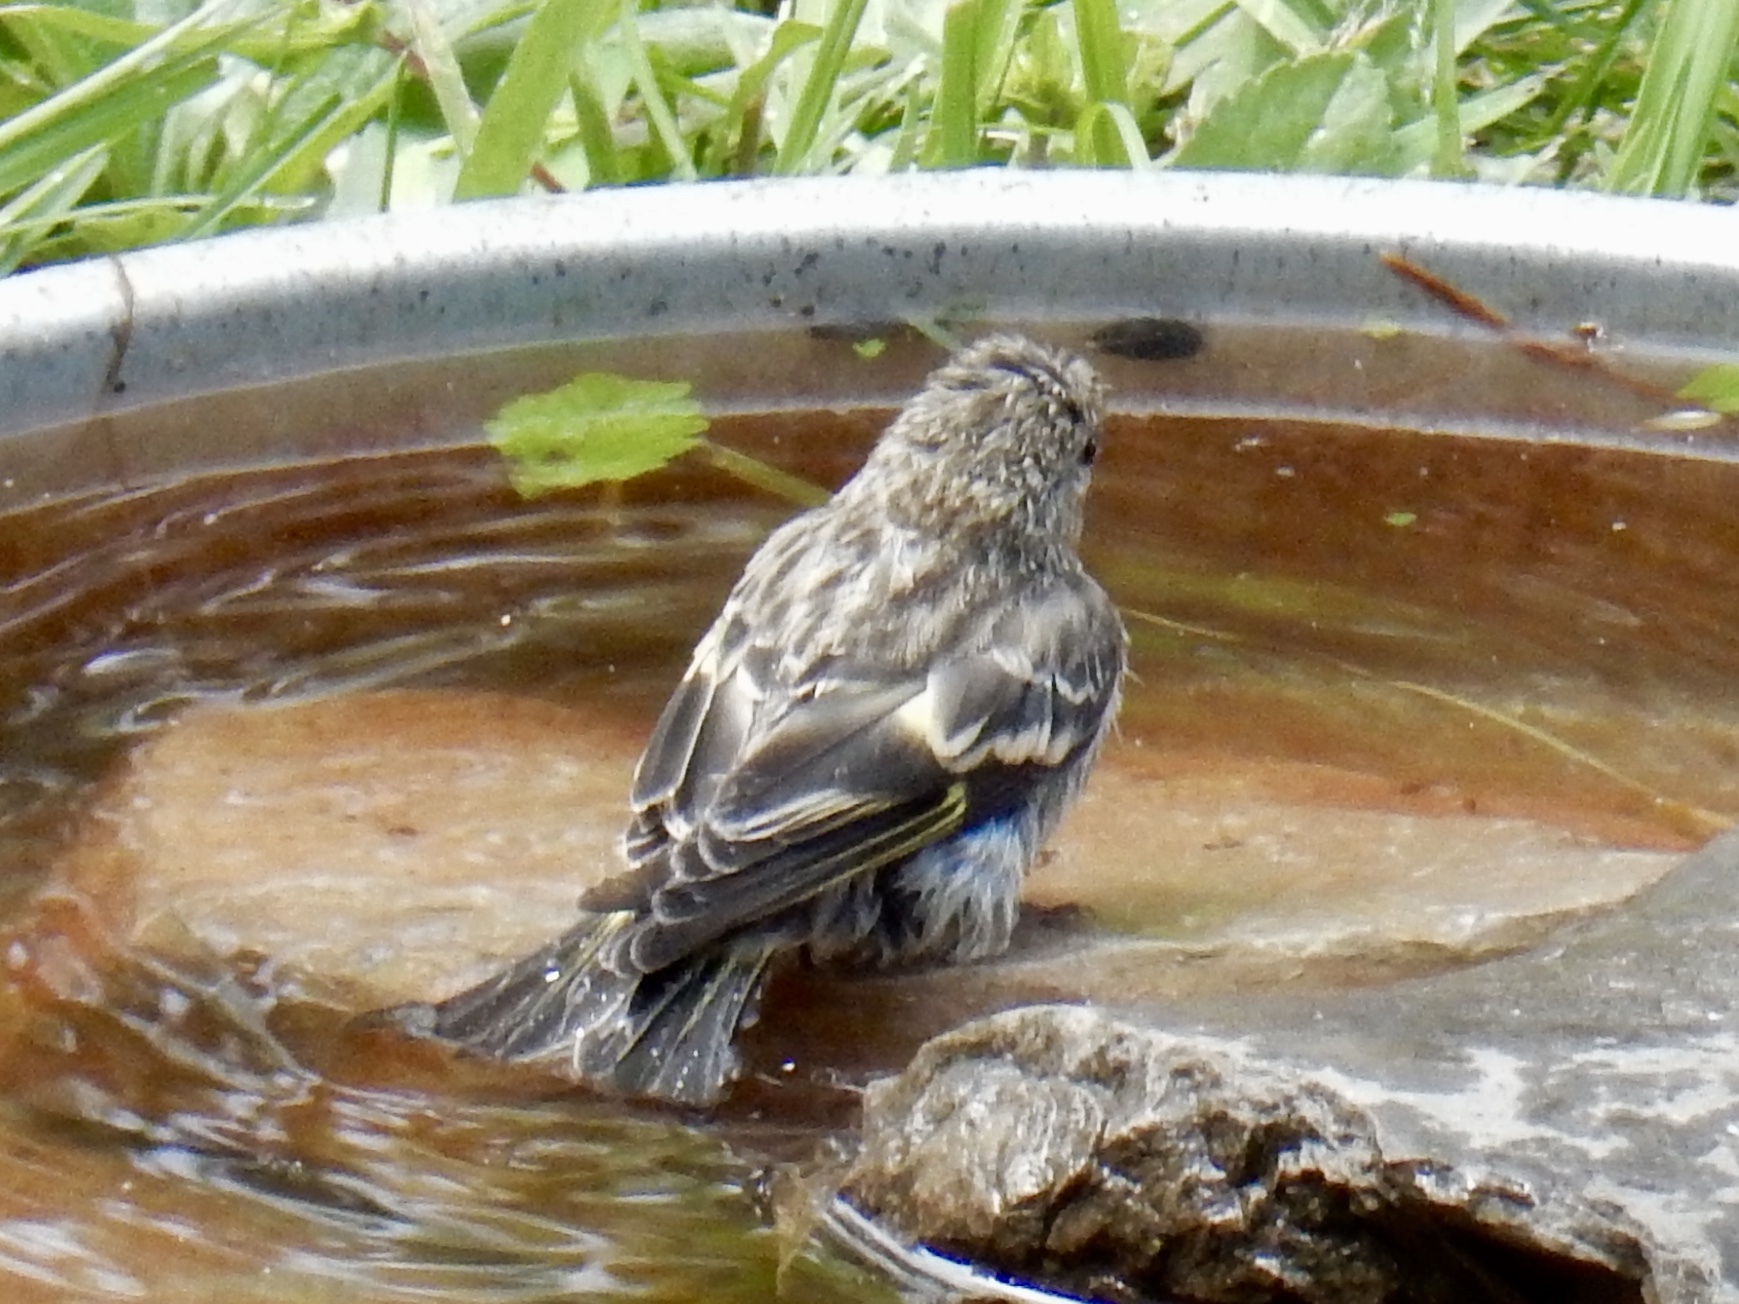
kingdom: Animalia
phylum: Chordata
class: Aves
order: Passeriformes
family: Fringillidae
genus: Spinus
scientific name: Spinus pinus
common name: Pine siskin
